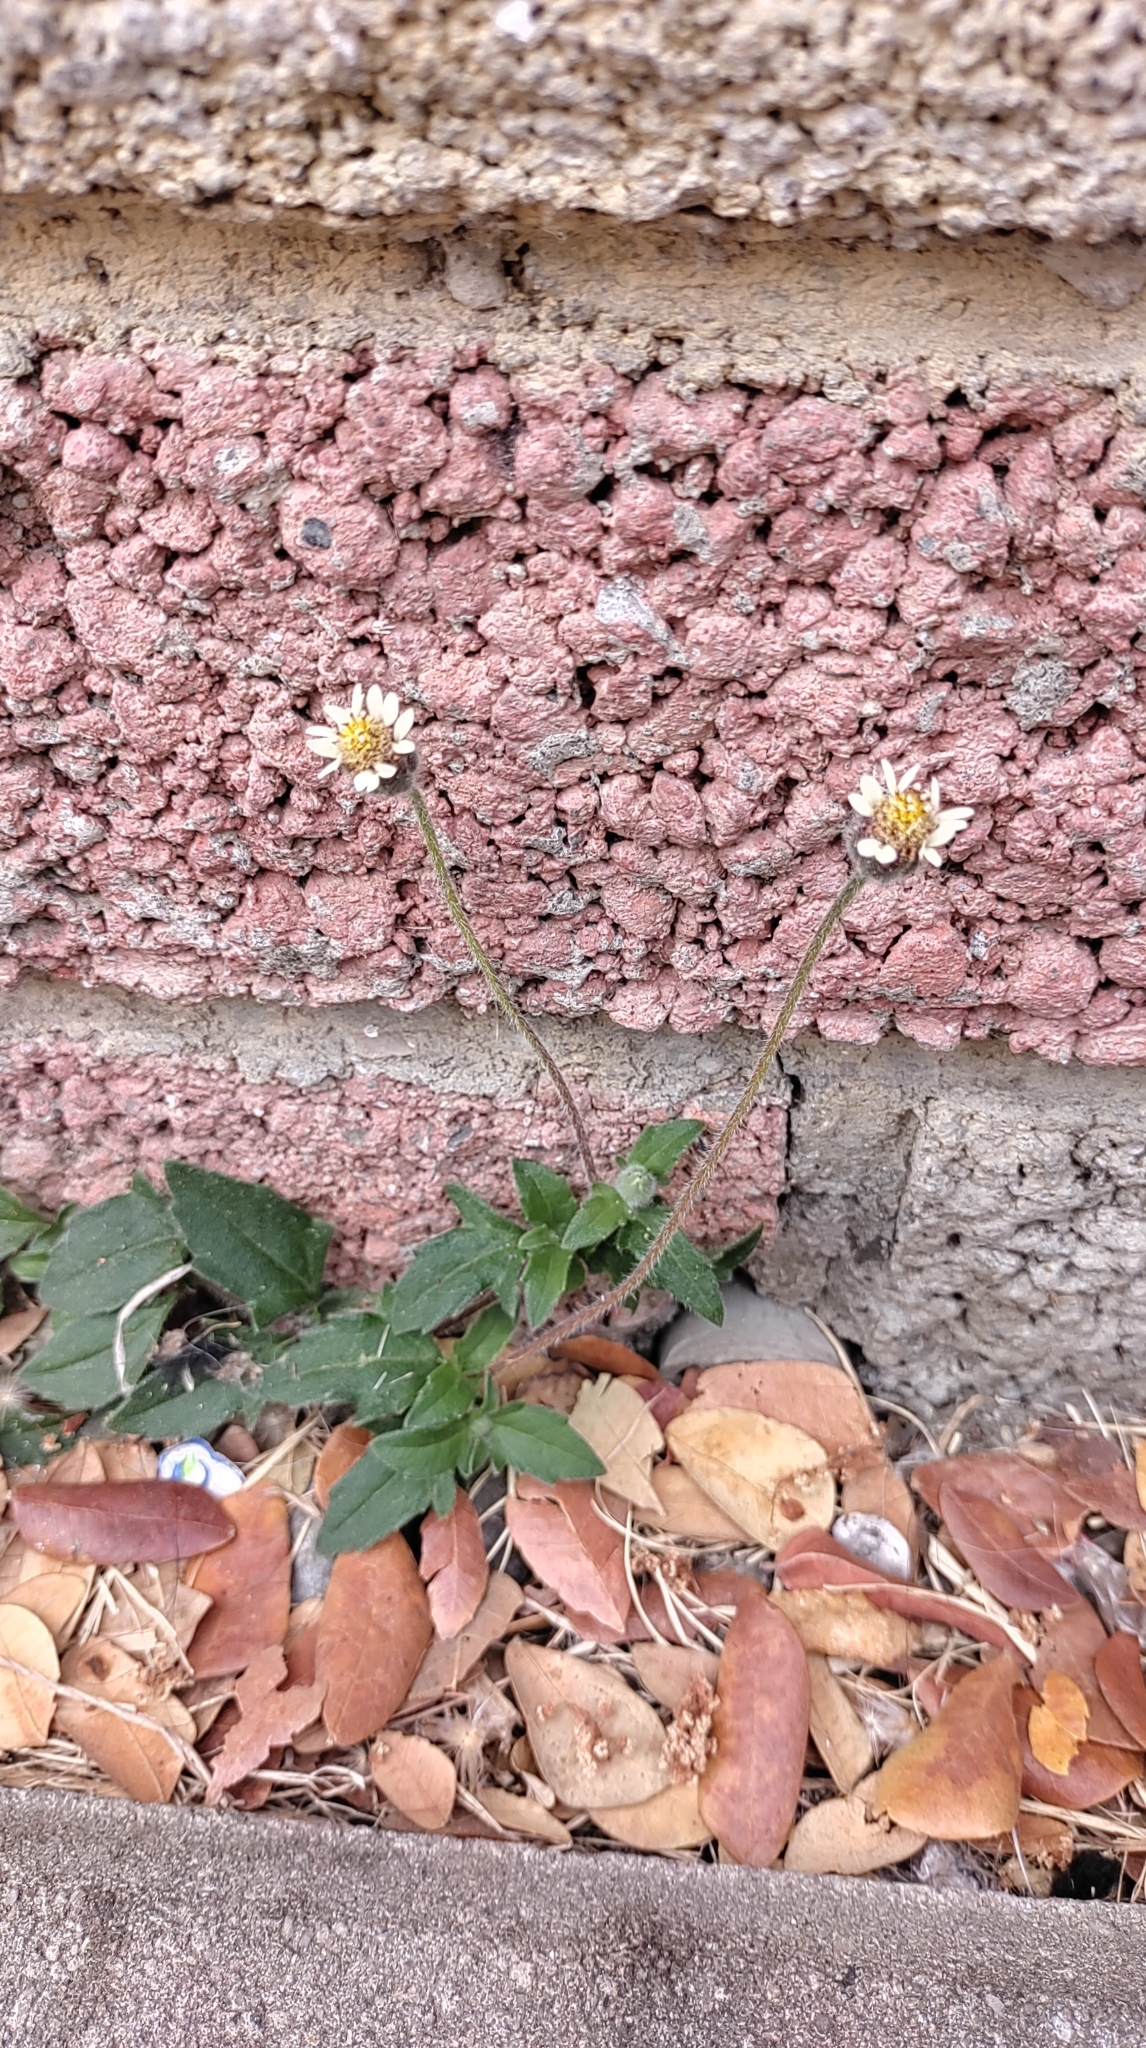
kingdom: Plantae
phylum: Tracheophyta
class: Magnoliopsida
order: Asterales
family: Asteraceae
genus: Tridax
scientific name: Tridax procumbens
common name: Coatbuttons
